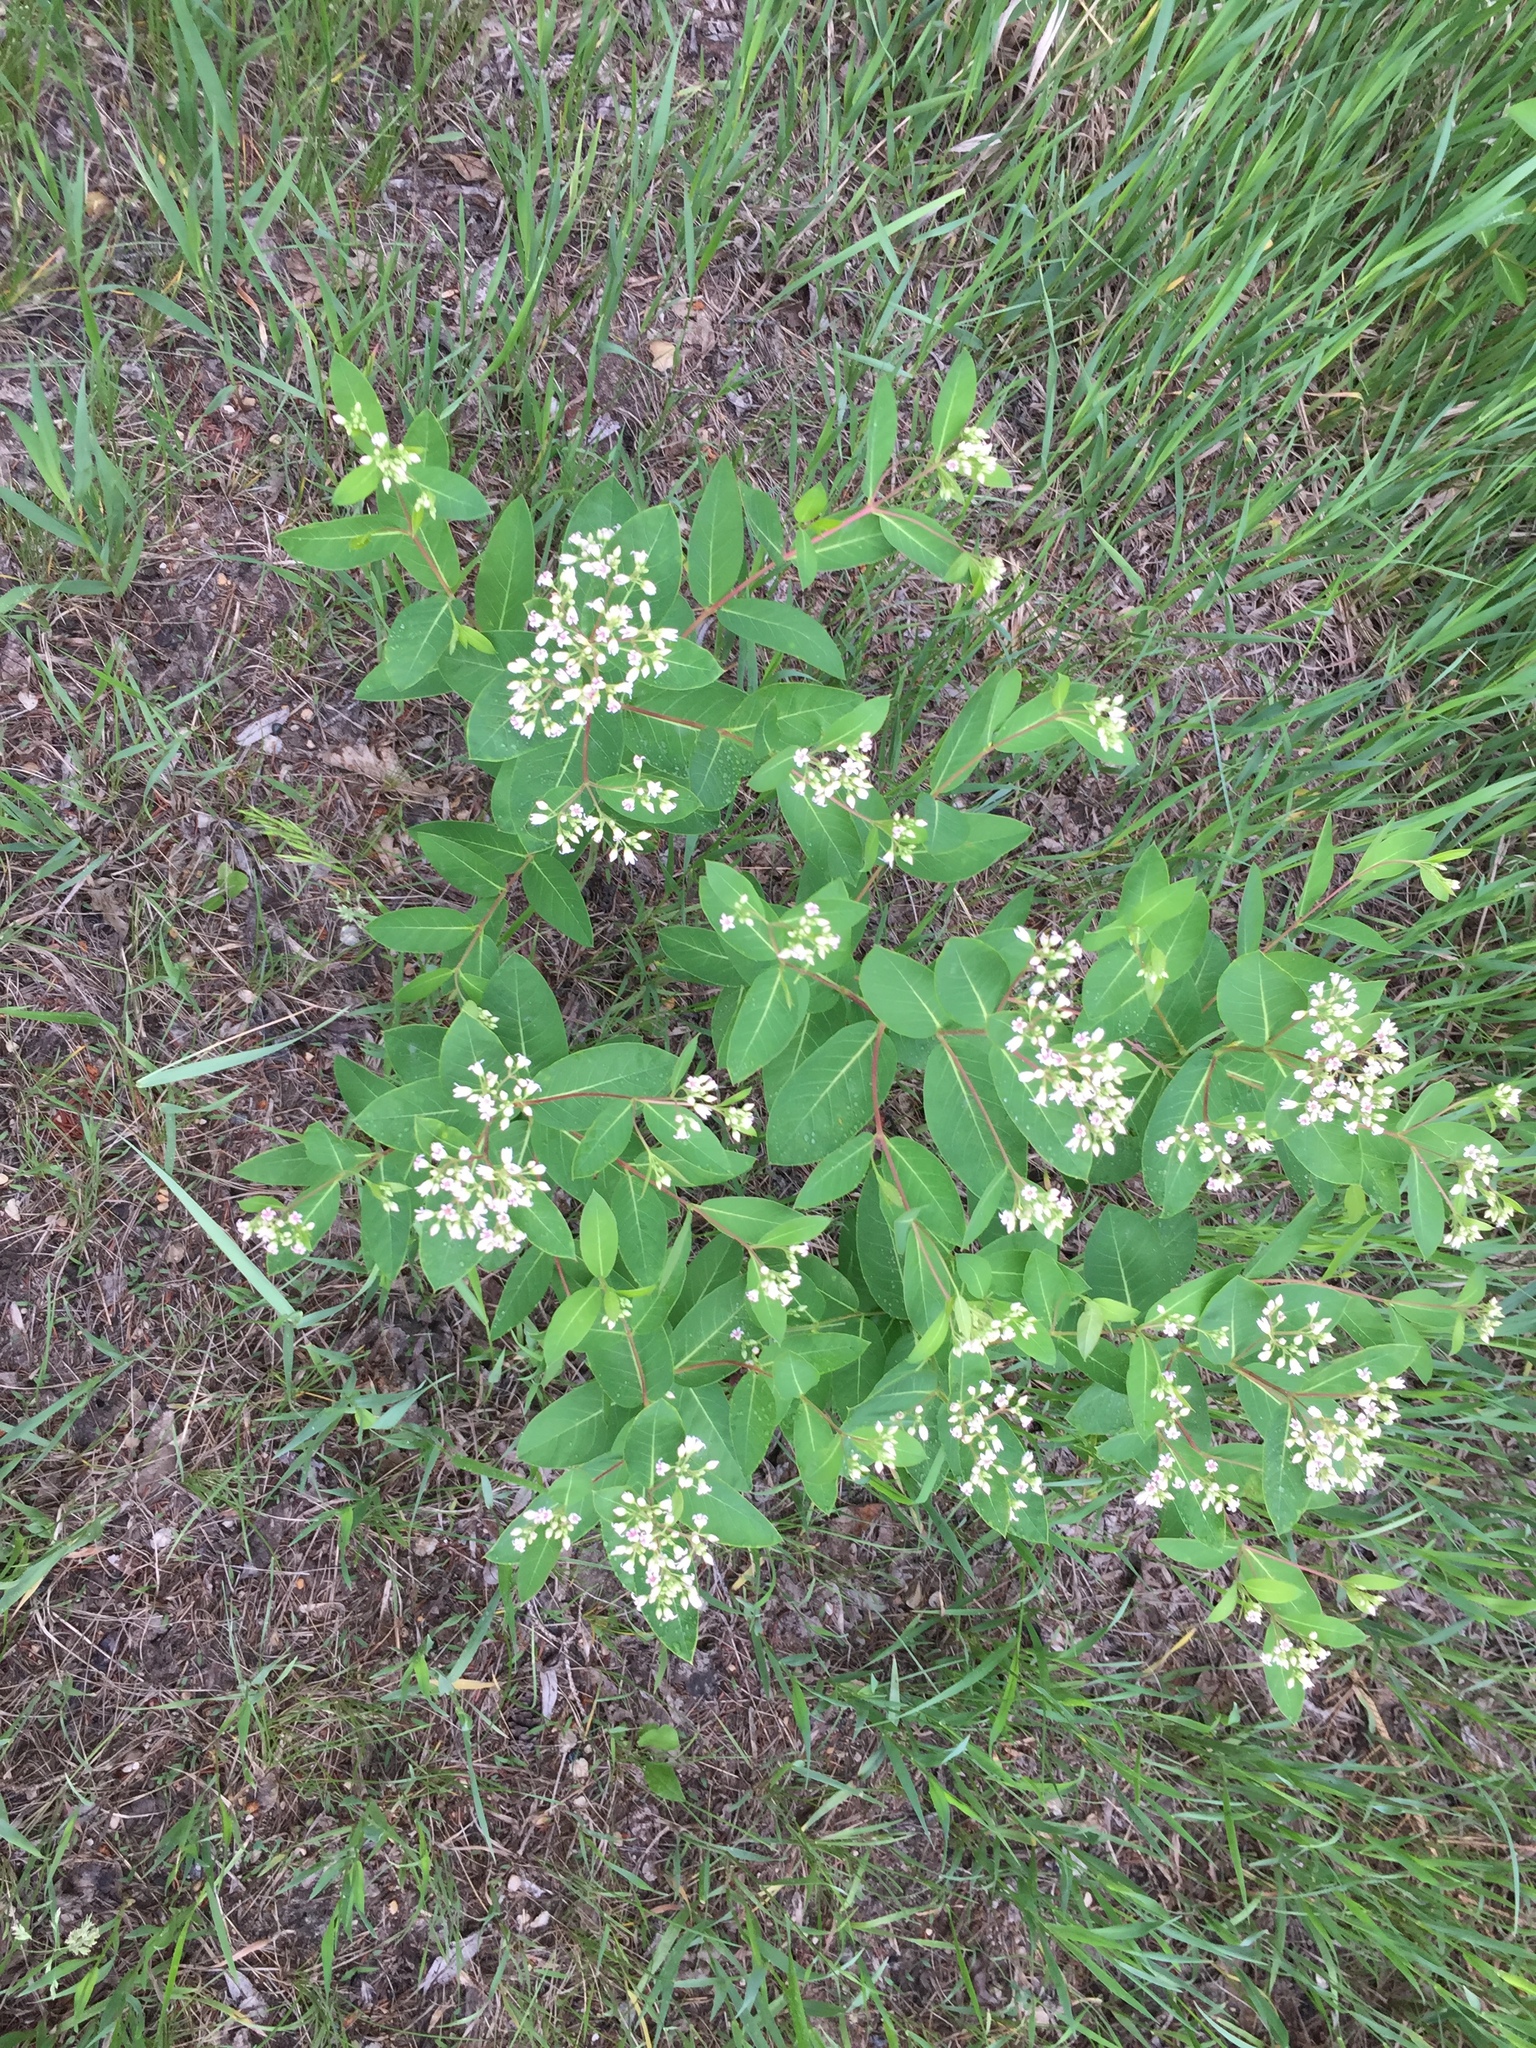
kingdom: Plantae
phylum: Tracheophyta
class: Magnoliopsida
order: Gentianales
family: Apocynaceae
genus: Apocynum
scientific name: Apocynum cannabinum
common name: Hemp dogbane
